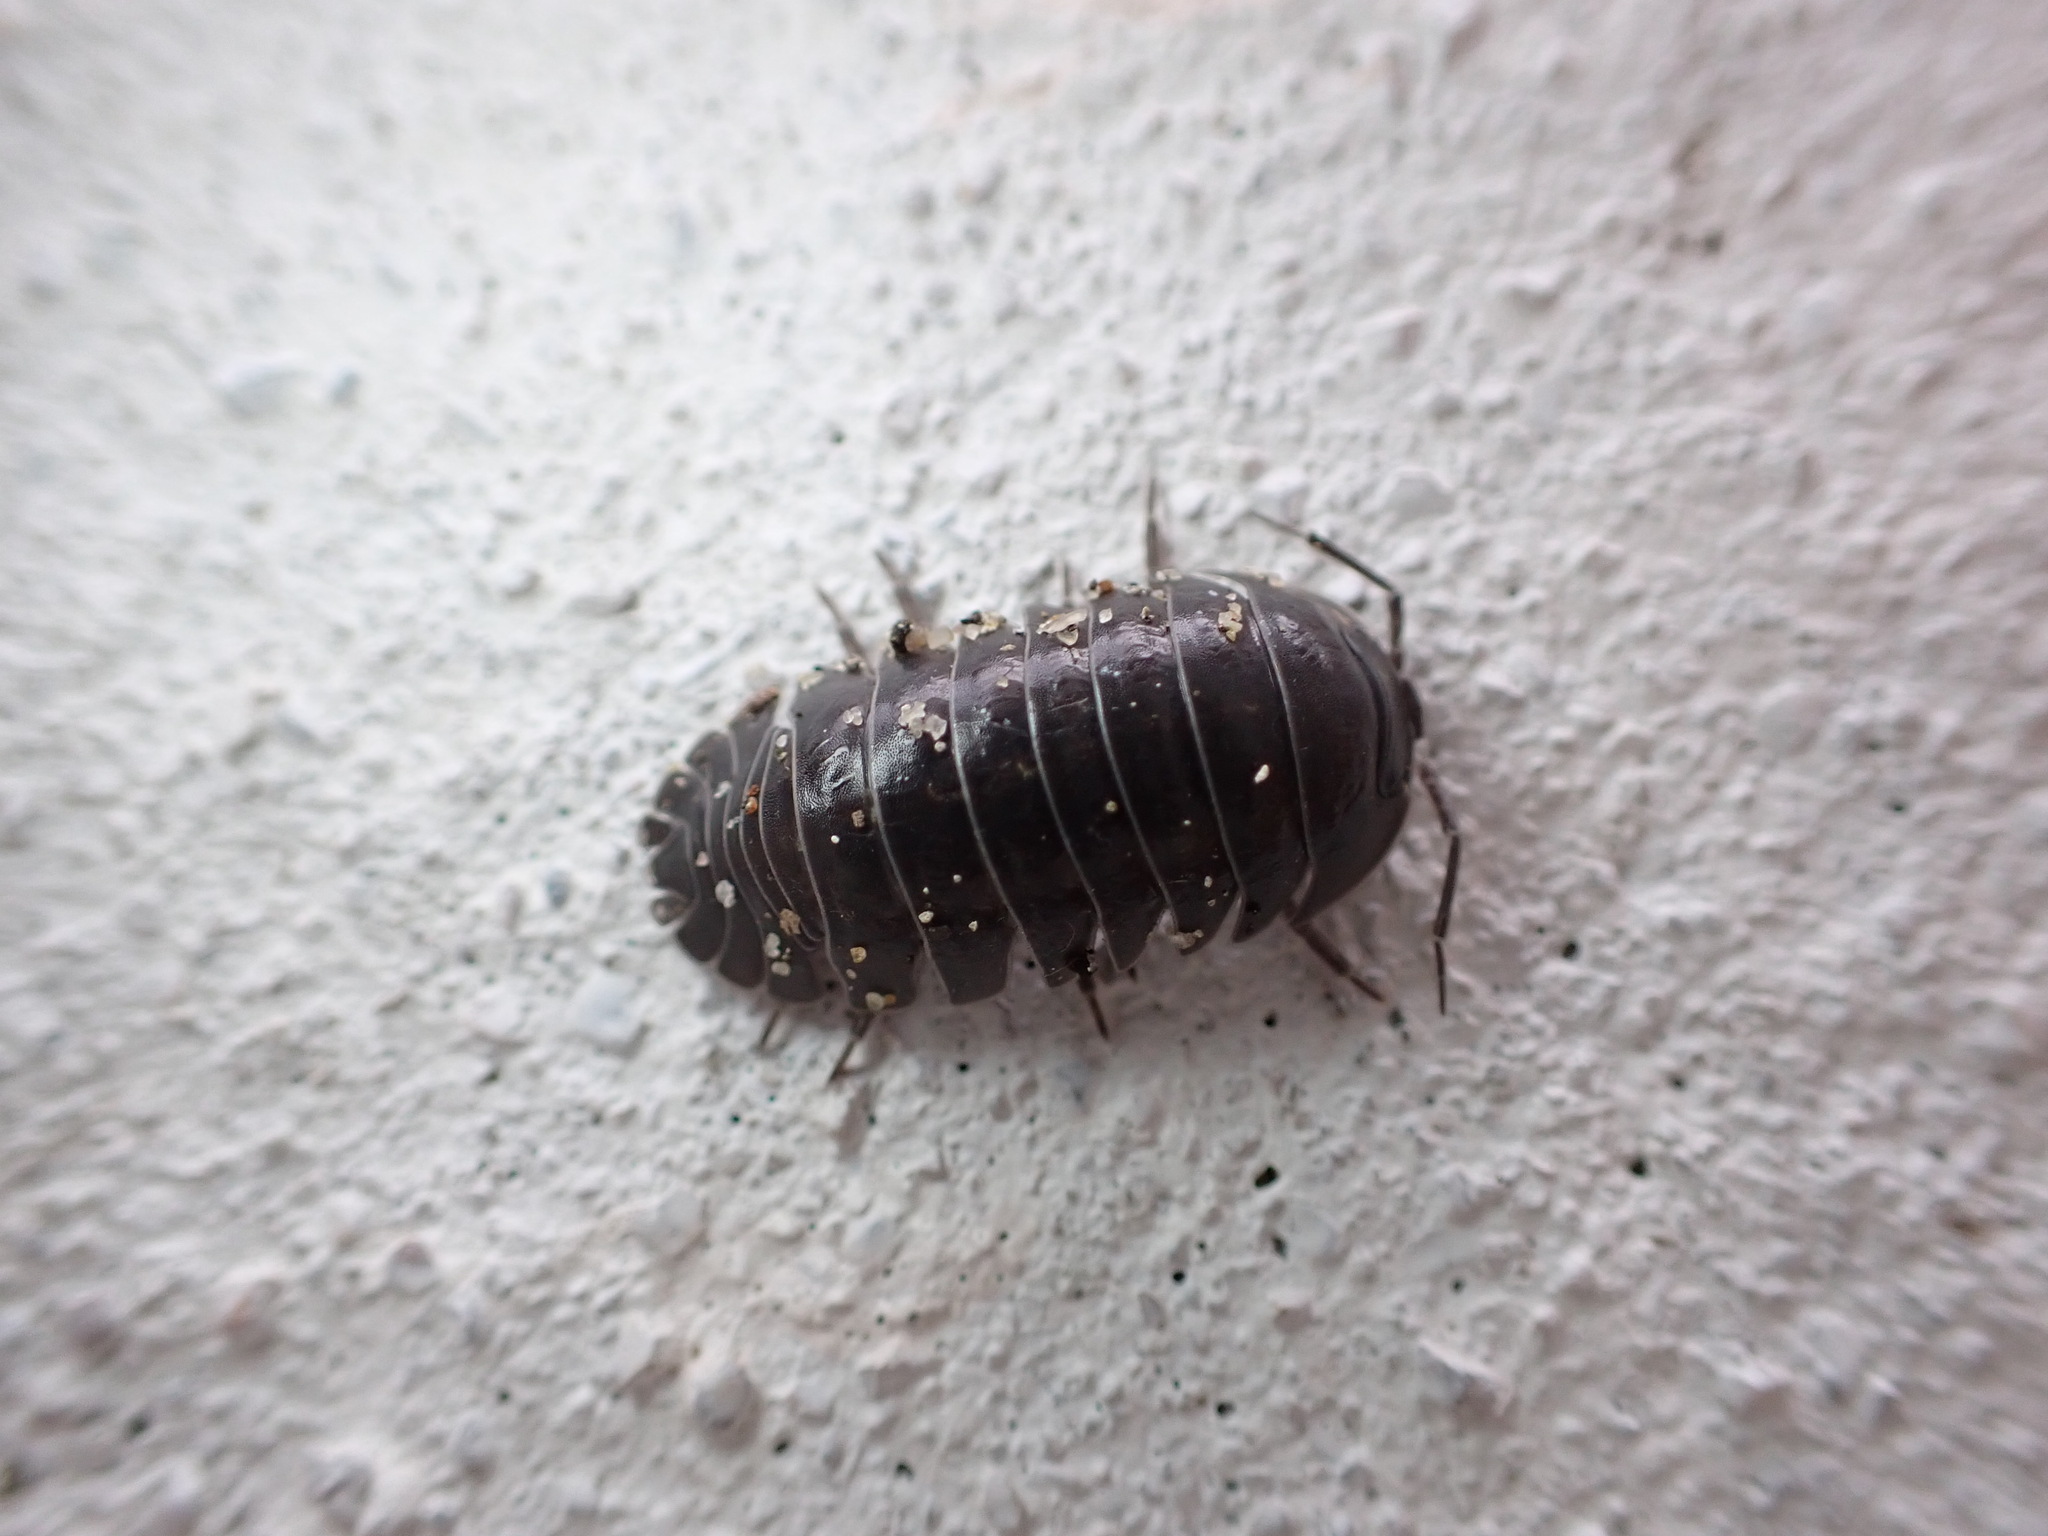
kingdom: Animalia
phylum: Arthropoda
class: Malacostraca
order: Isopoda
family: Armadillidiidae
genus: Armadillidium
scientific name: Armadillidium depressum
